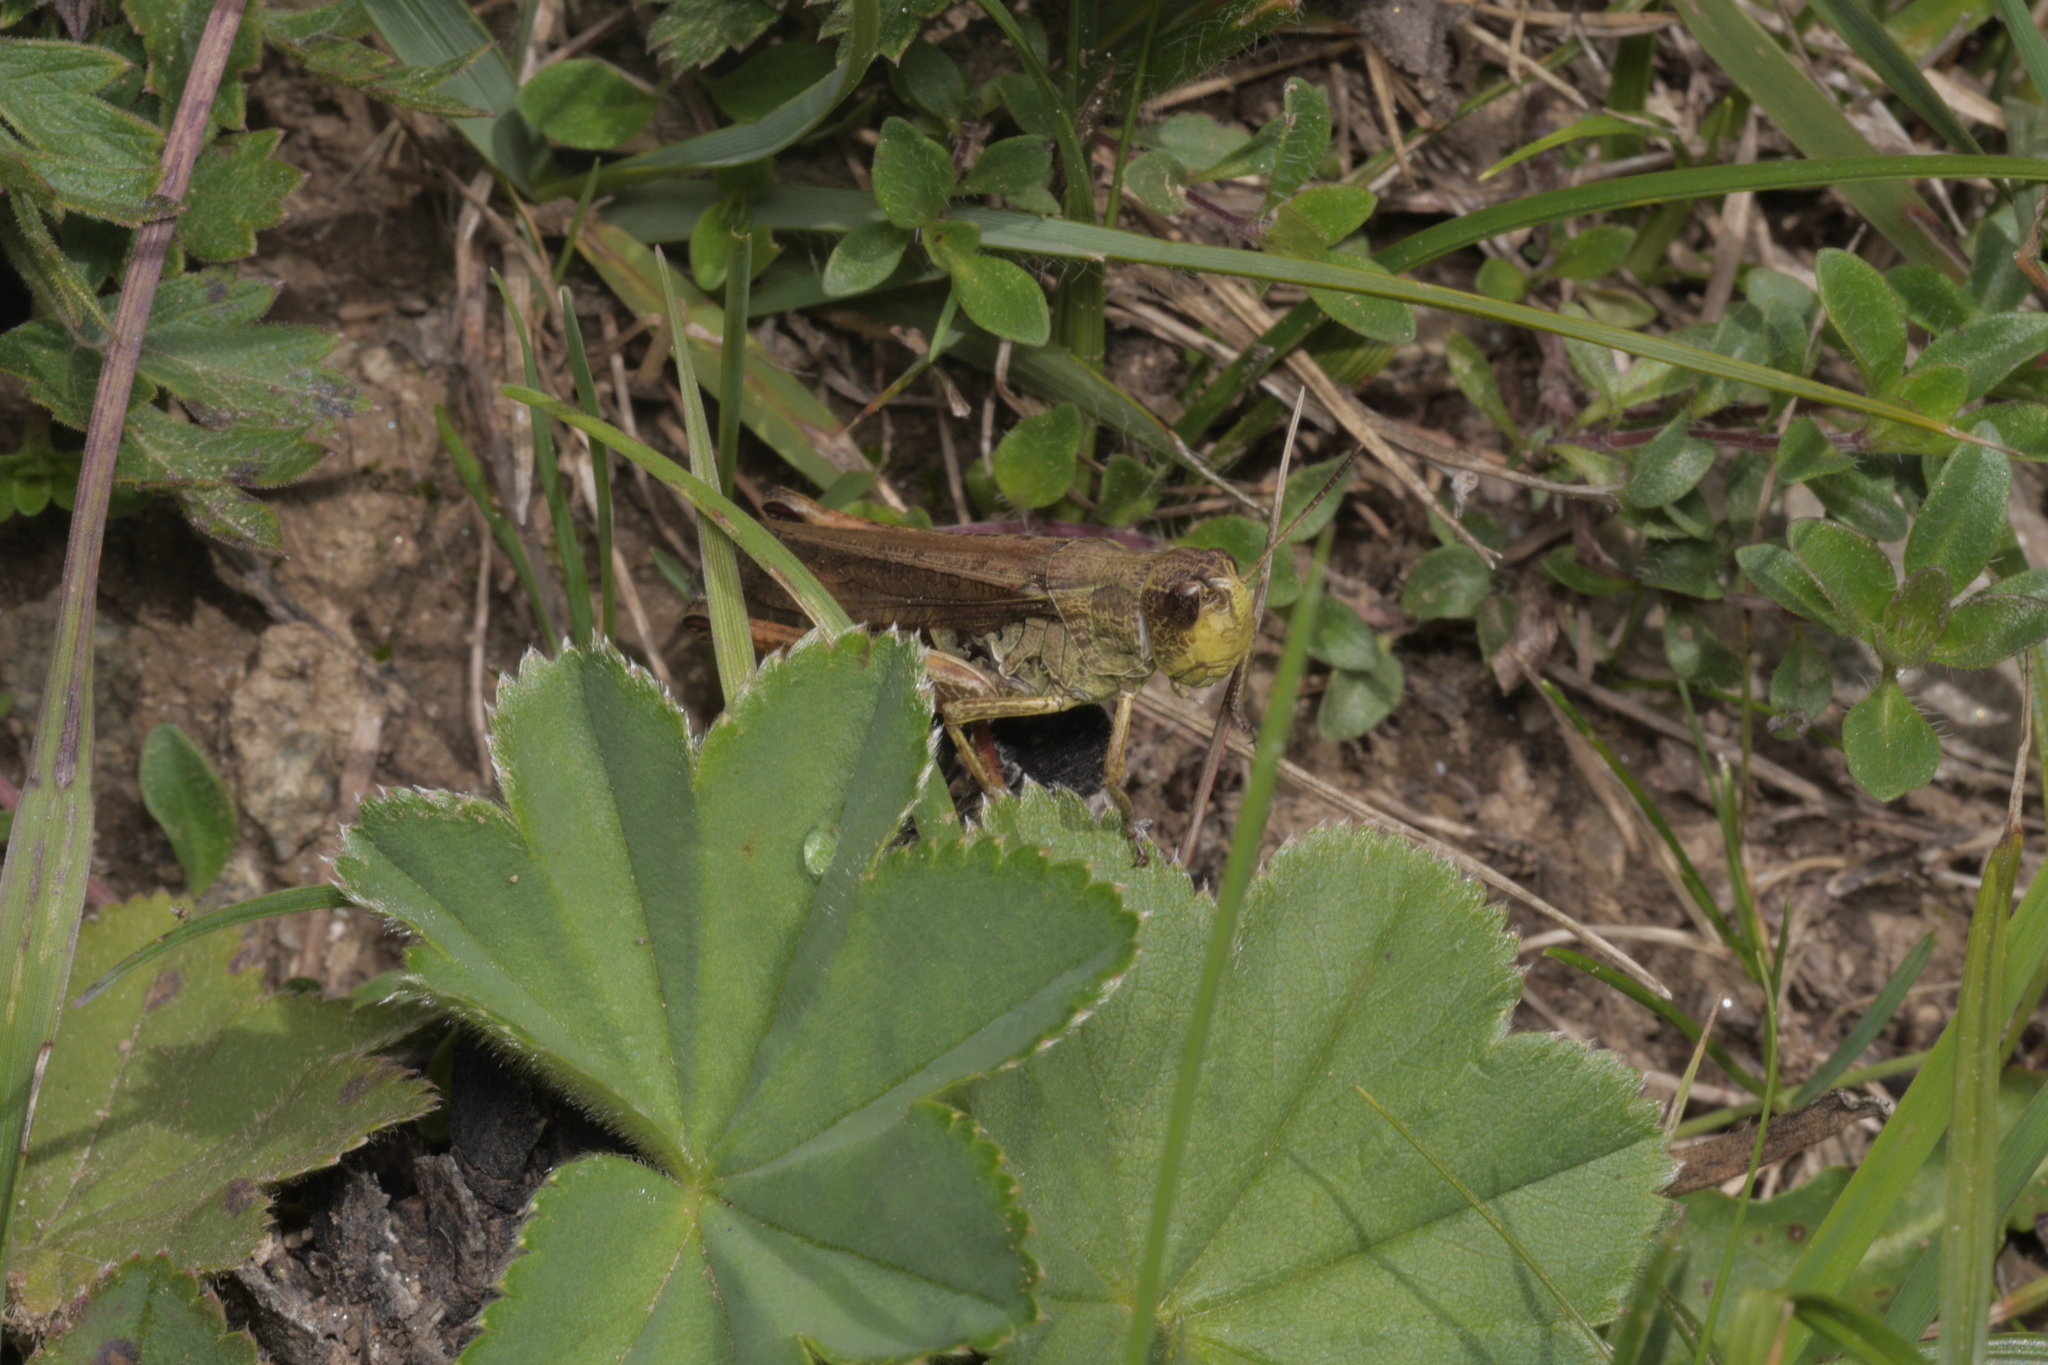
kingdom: Animalia
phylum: Arthropoda
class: Insecta
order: Orthoptera
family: Acrididae
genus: Stauroderus
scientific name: Stauroderus scalaris
